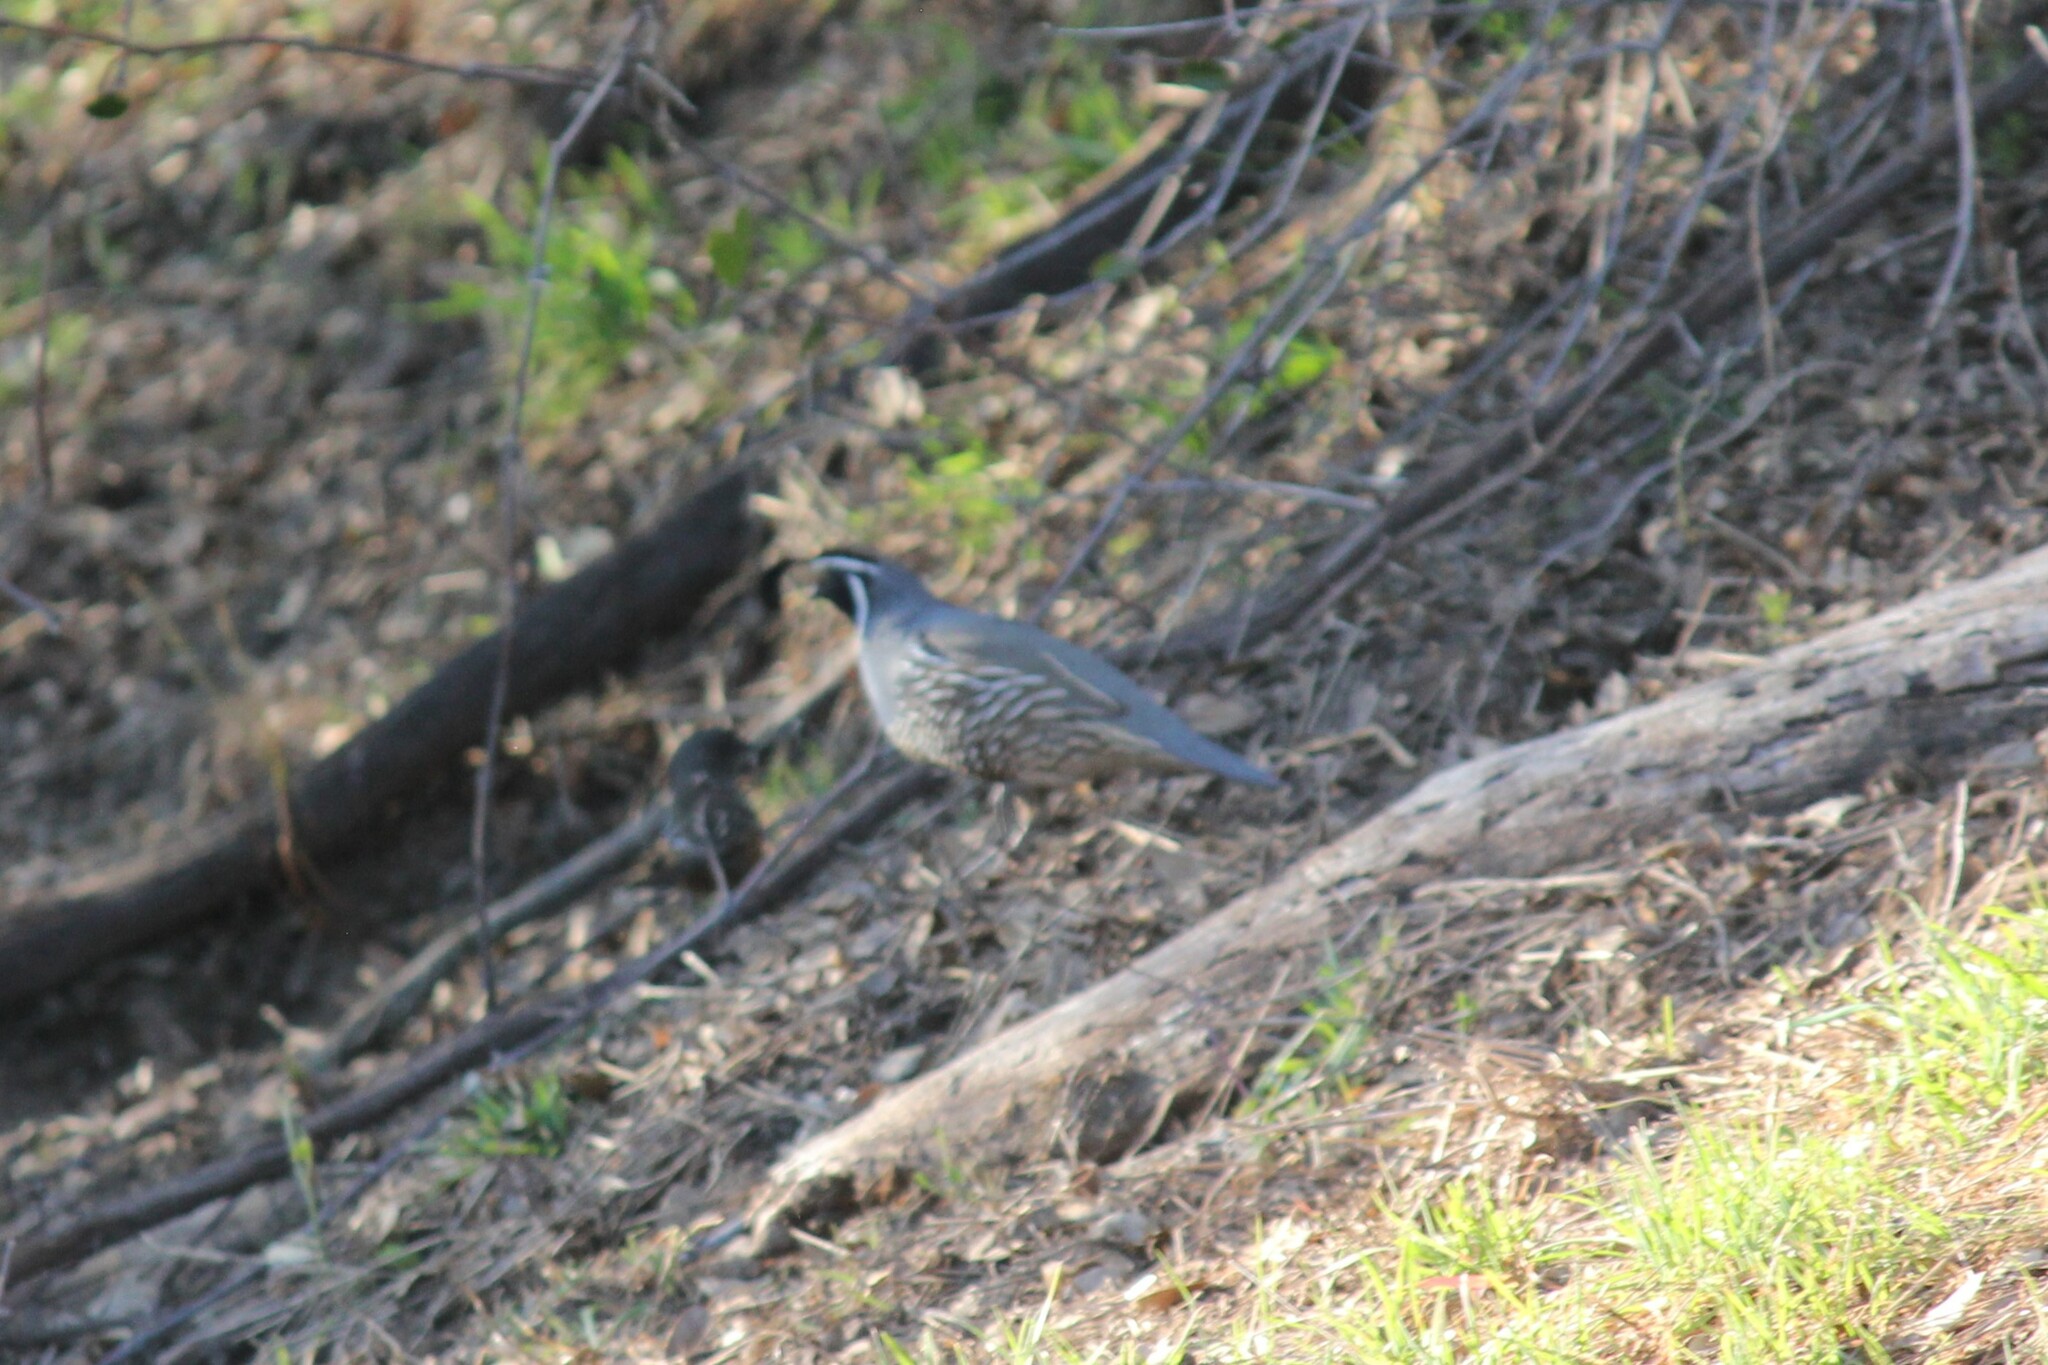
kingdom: Animalia
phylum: Chordata
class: Aves
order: Galliformes
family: Odontophoridae
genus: Callipepla
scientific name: Callipepla californica
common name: California quail
